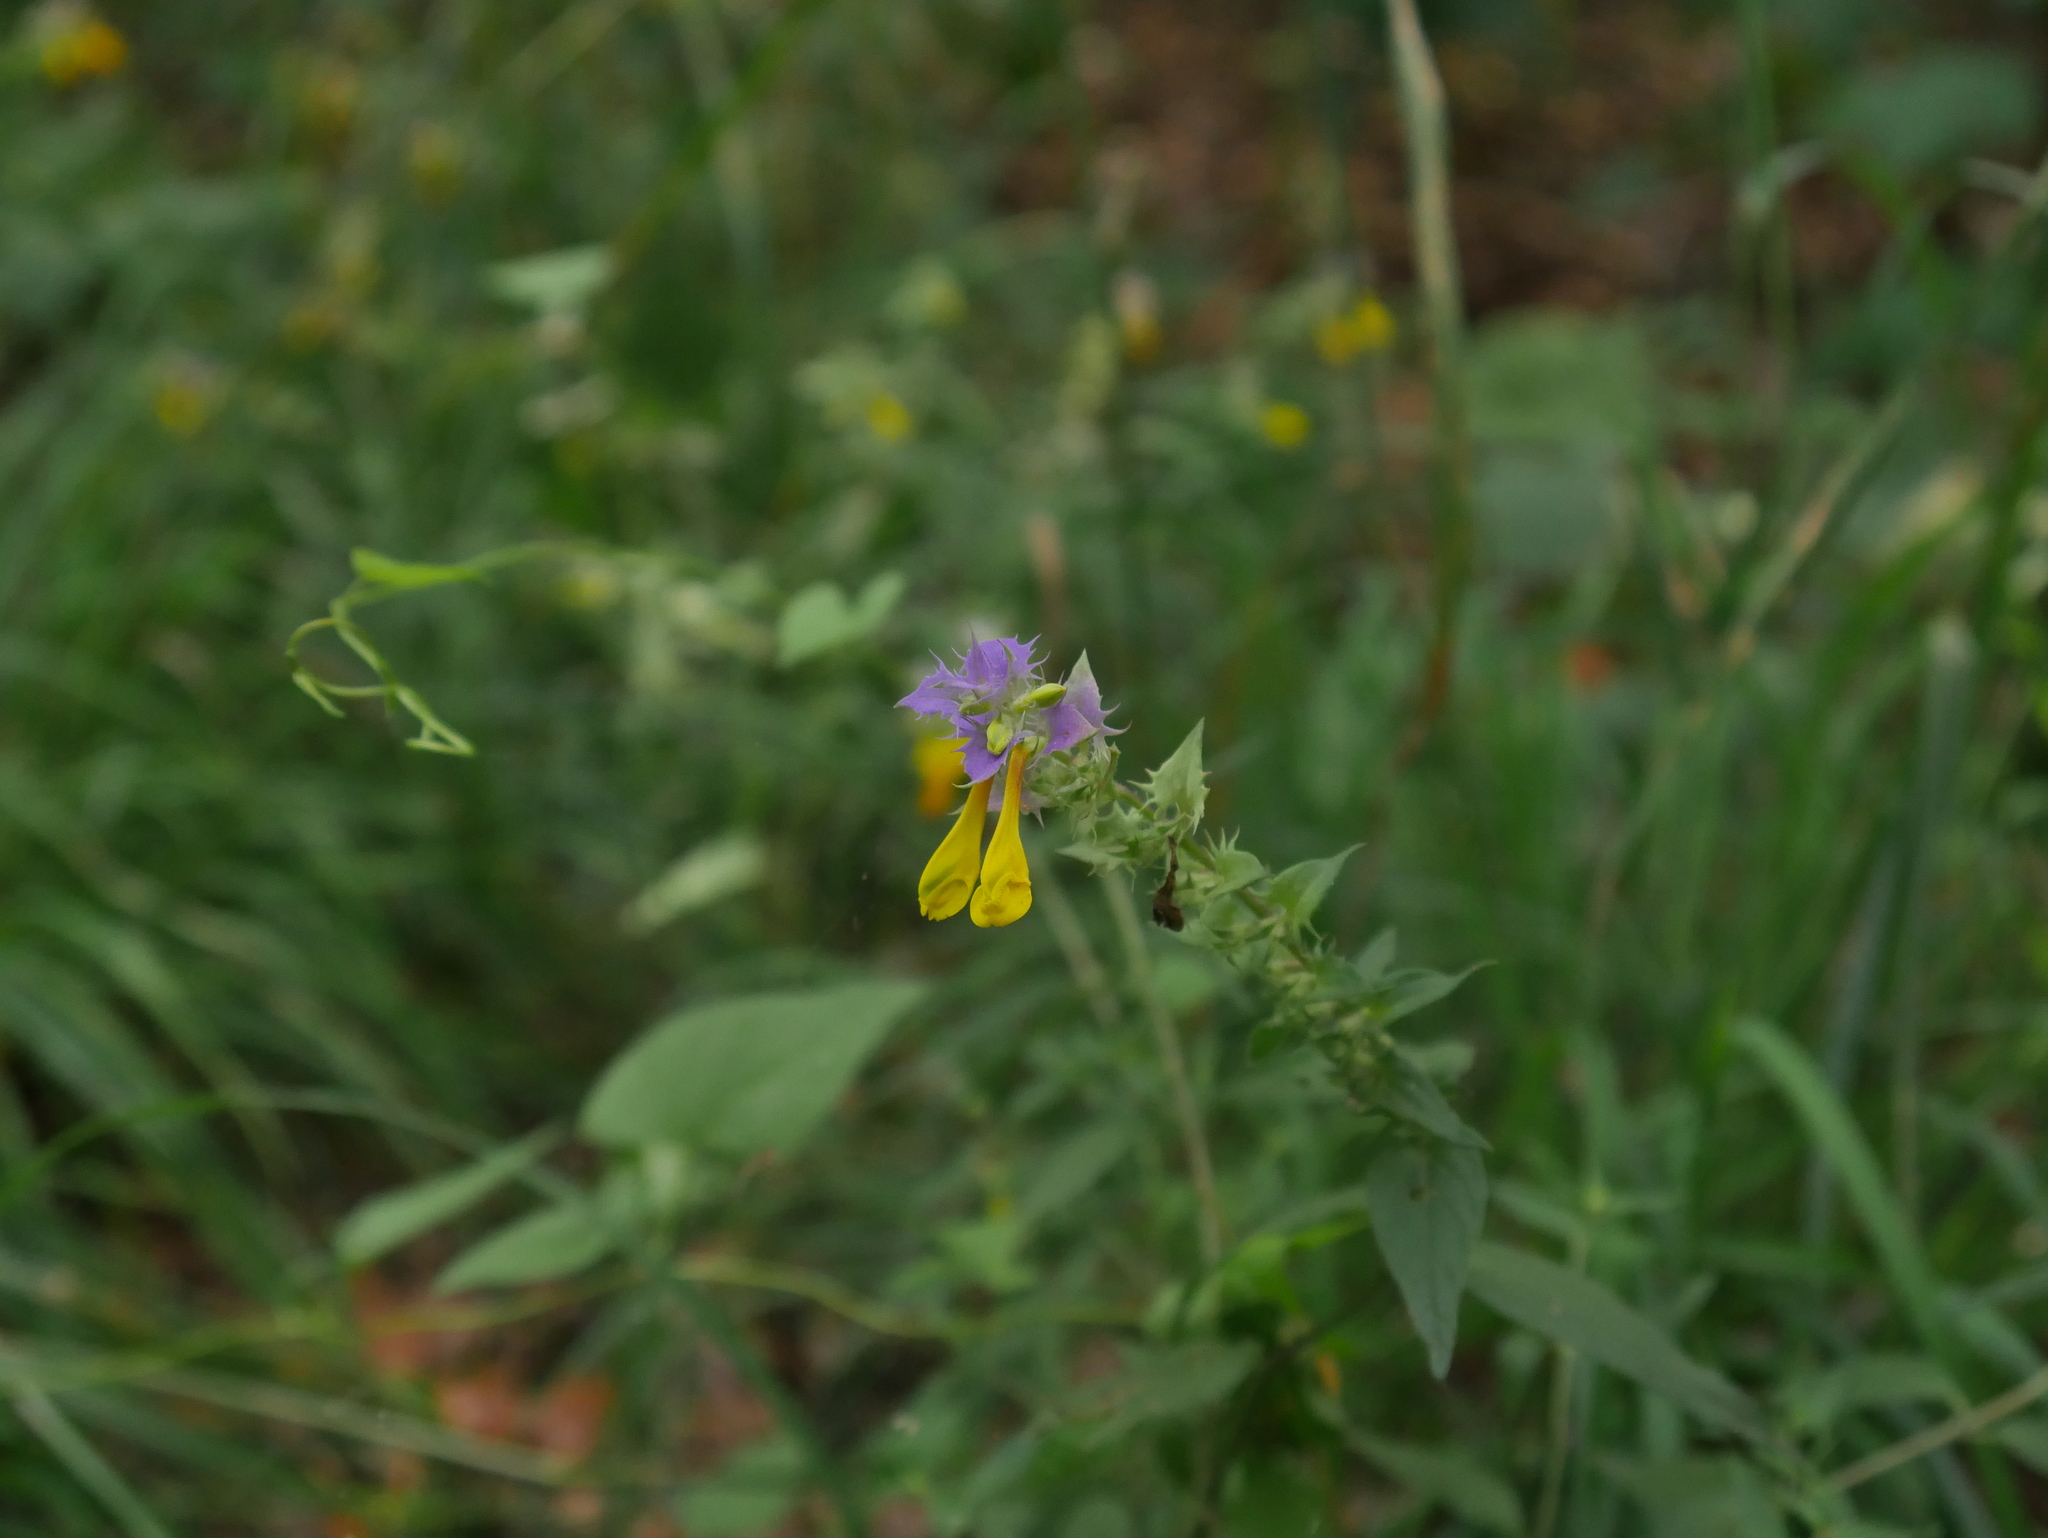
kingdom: Plantae
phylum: Tracheophyta
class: Magnoliopsida
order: Lamiales
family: Orobanchaceae
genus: Melampyrum
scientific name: Melampyrum nemorosum
